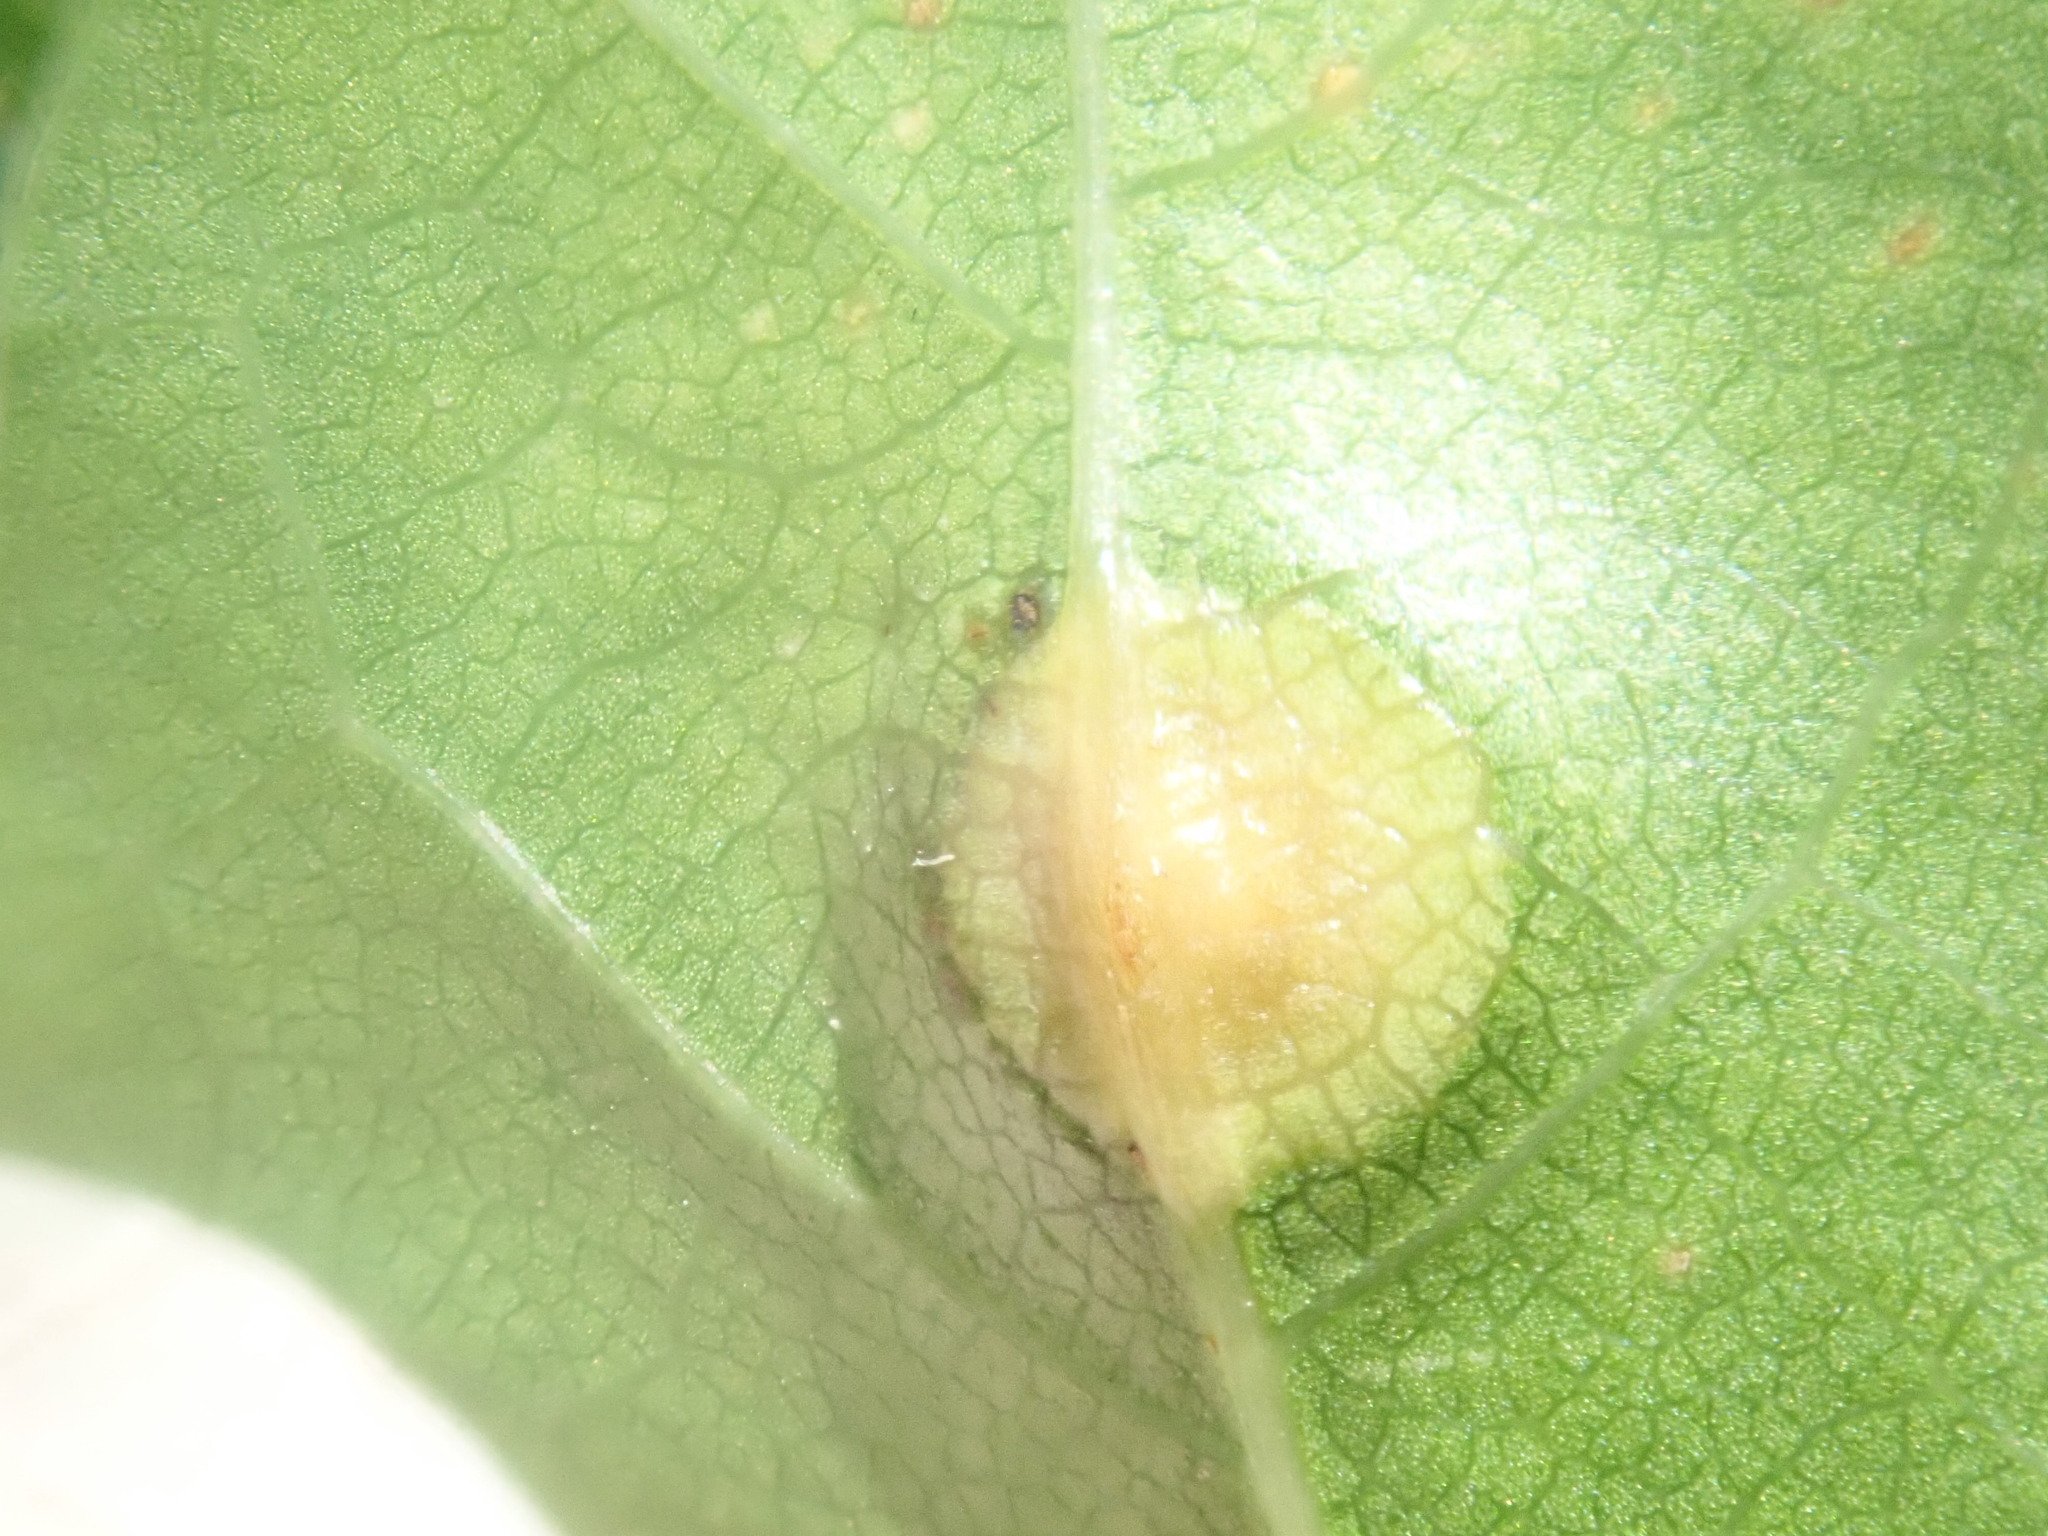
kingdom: Animalia
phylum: Arthropoda
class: Insecta
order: Diptera
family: Cecidomyiidae
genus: Polystepha
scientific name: Polystepha pilulae
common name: Oak leaf gall midge
